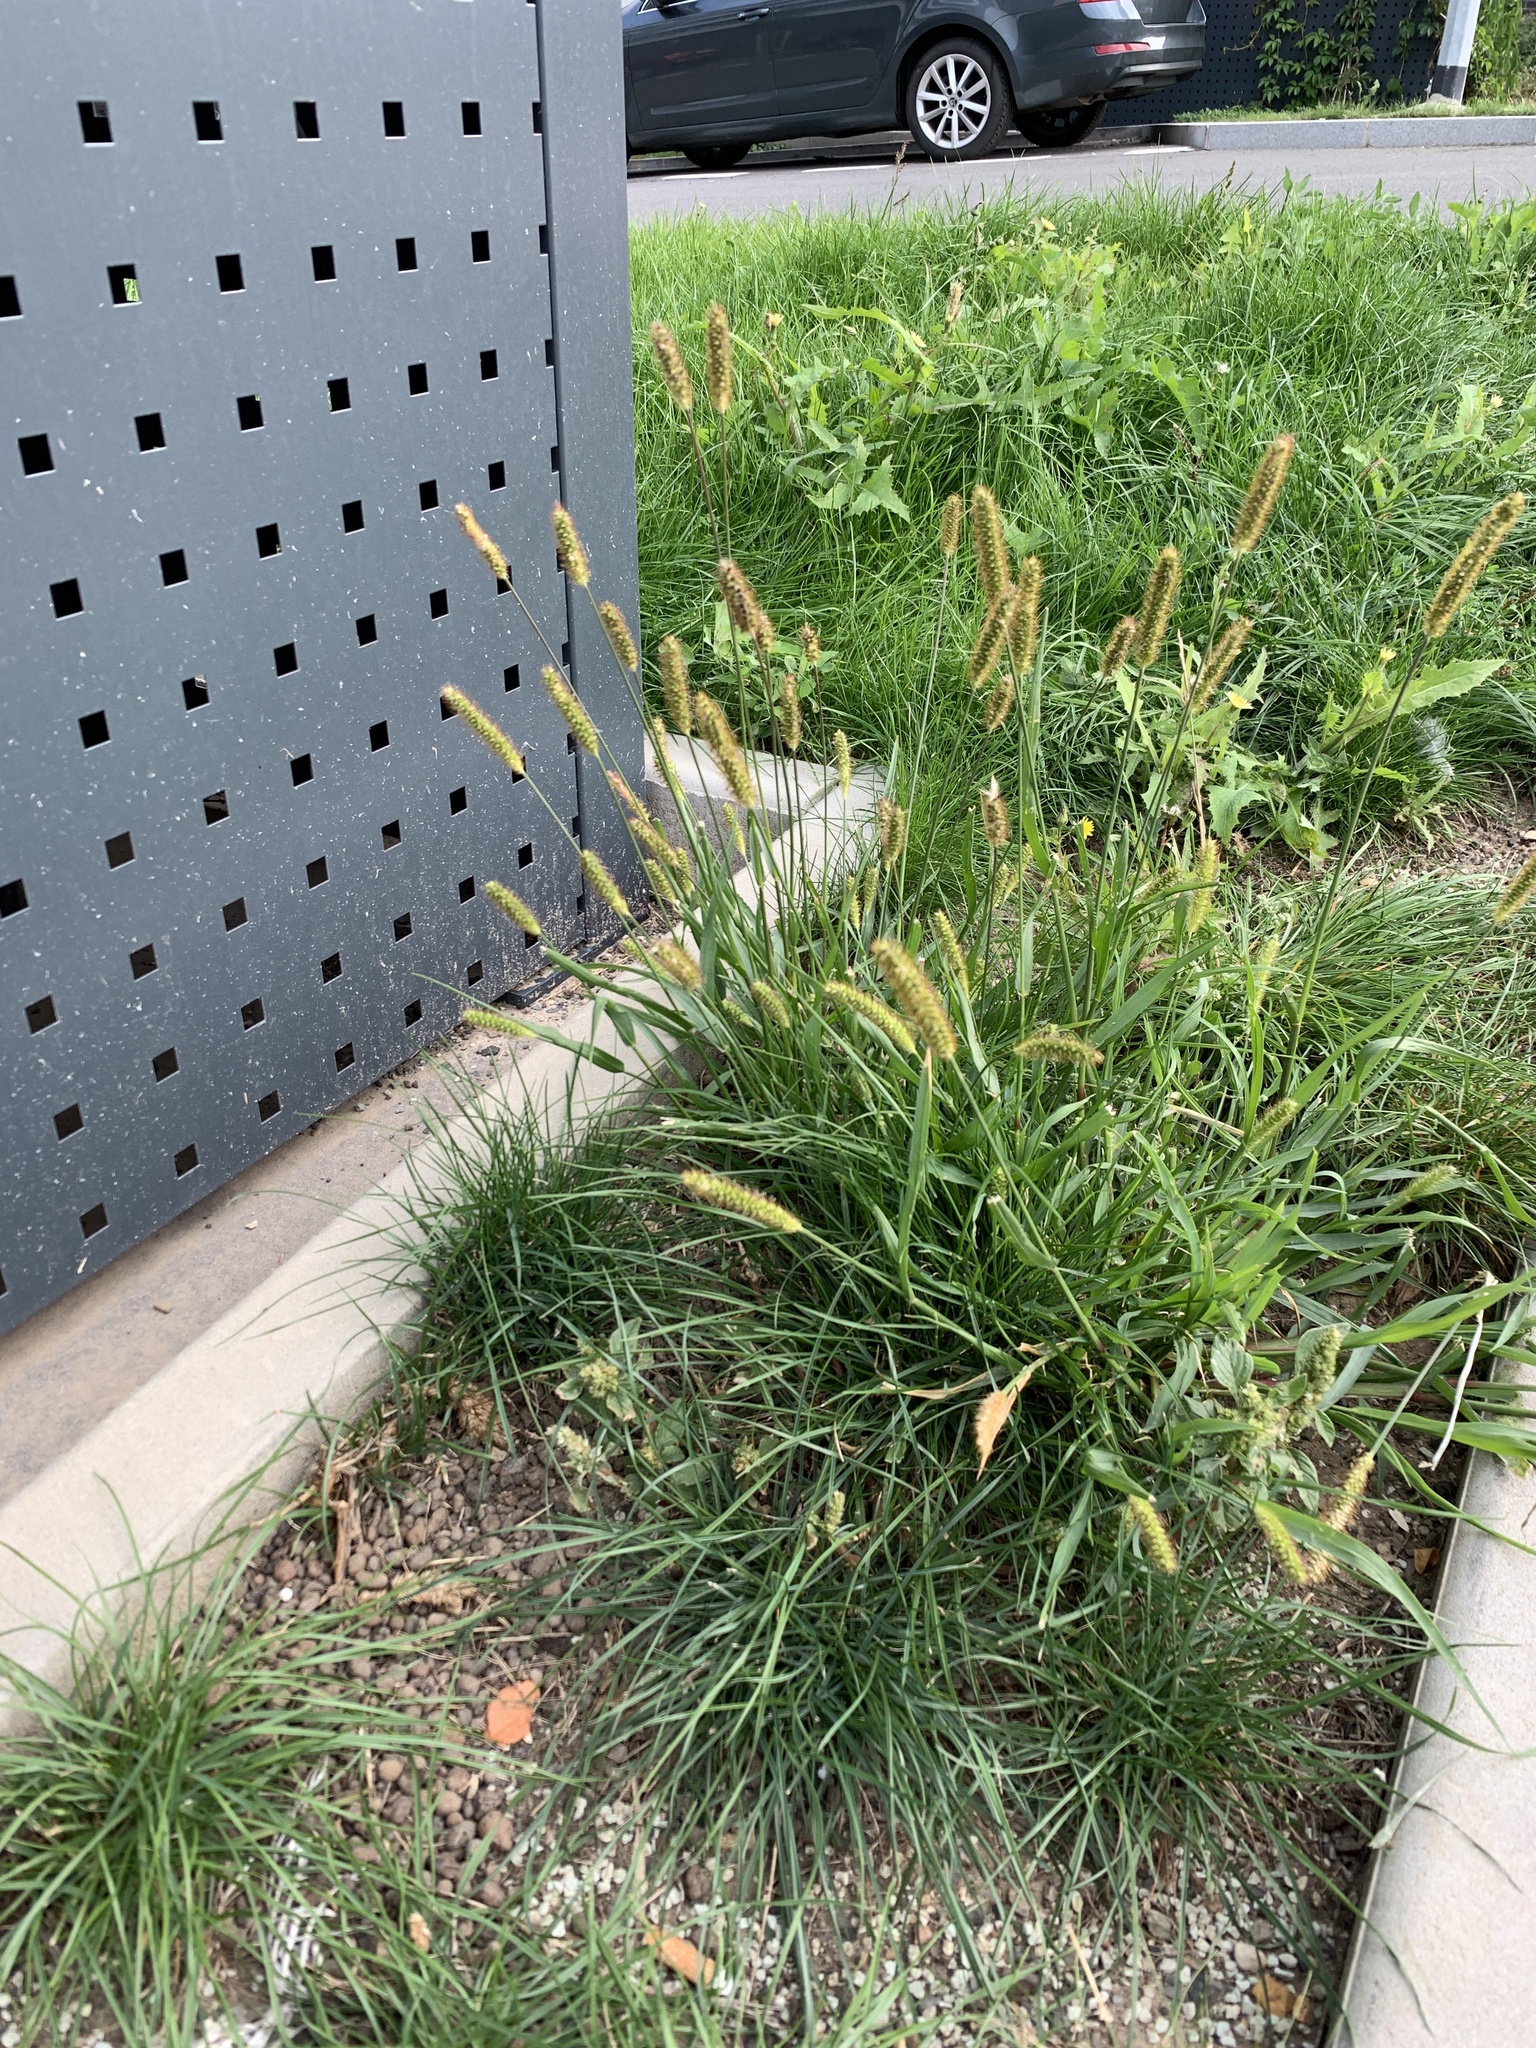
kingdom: Plantae
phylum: Tracheophyta
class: Liliopsida
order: Poales
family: Poaceae
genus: Setaria
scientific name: Setaria pumila
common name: Yellow bristle-grass
